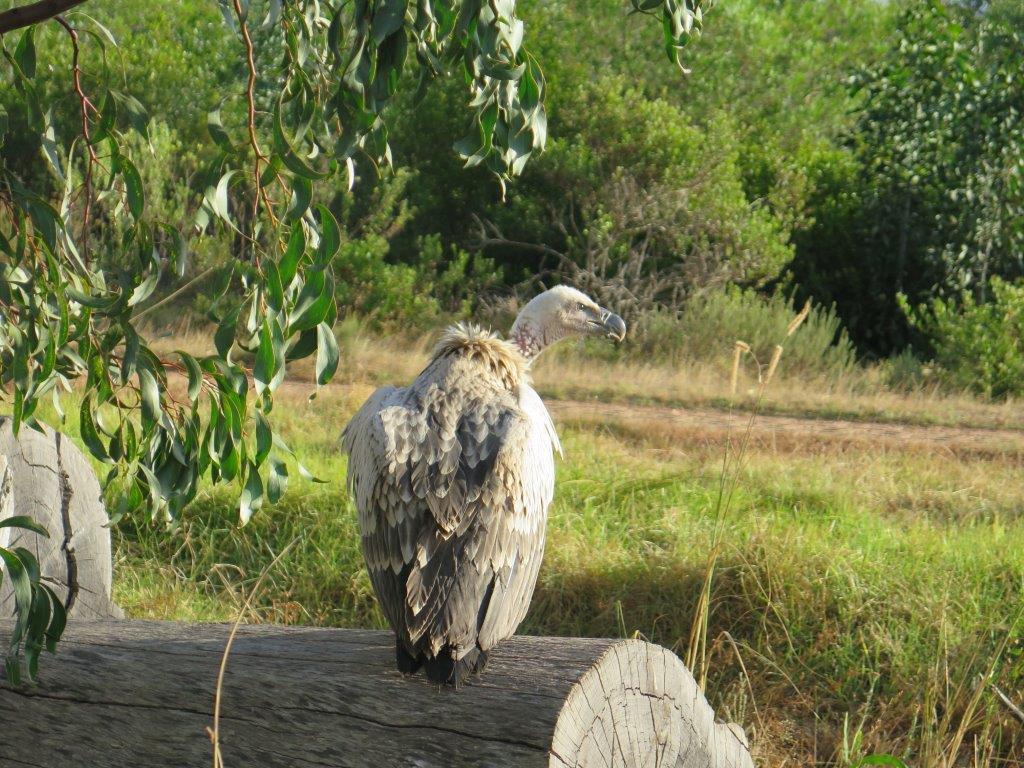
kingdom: Animalia
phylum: Chordata
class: Aves
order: Accipitriformes
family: Accipitridae
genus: Gyps
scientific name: Gyps coprotheres
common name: Cape vulture
